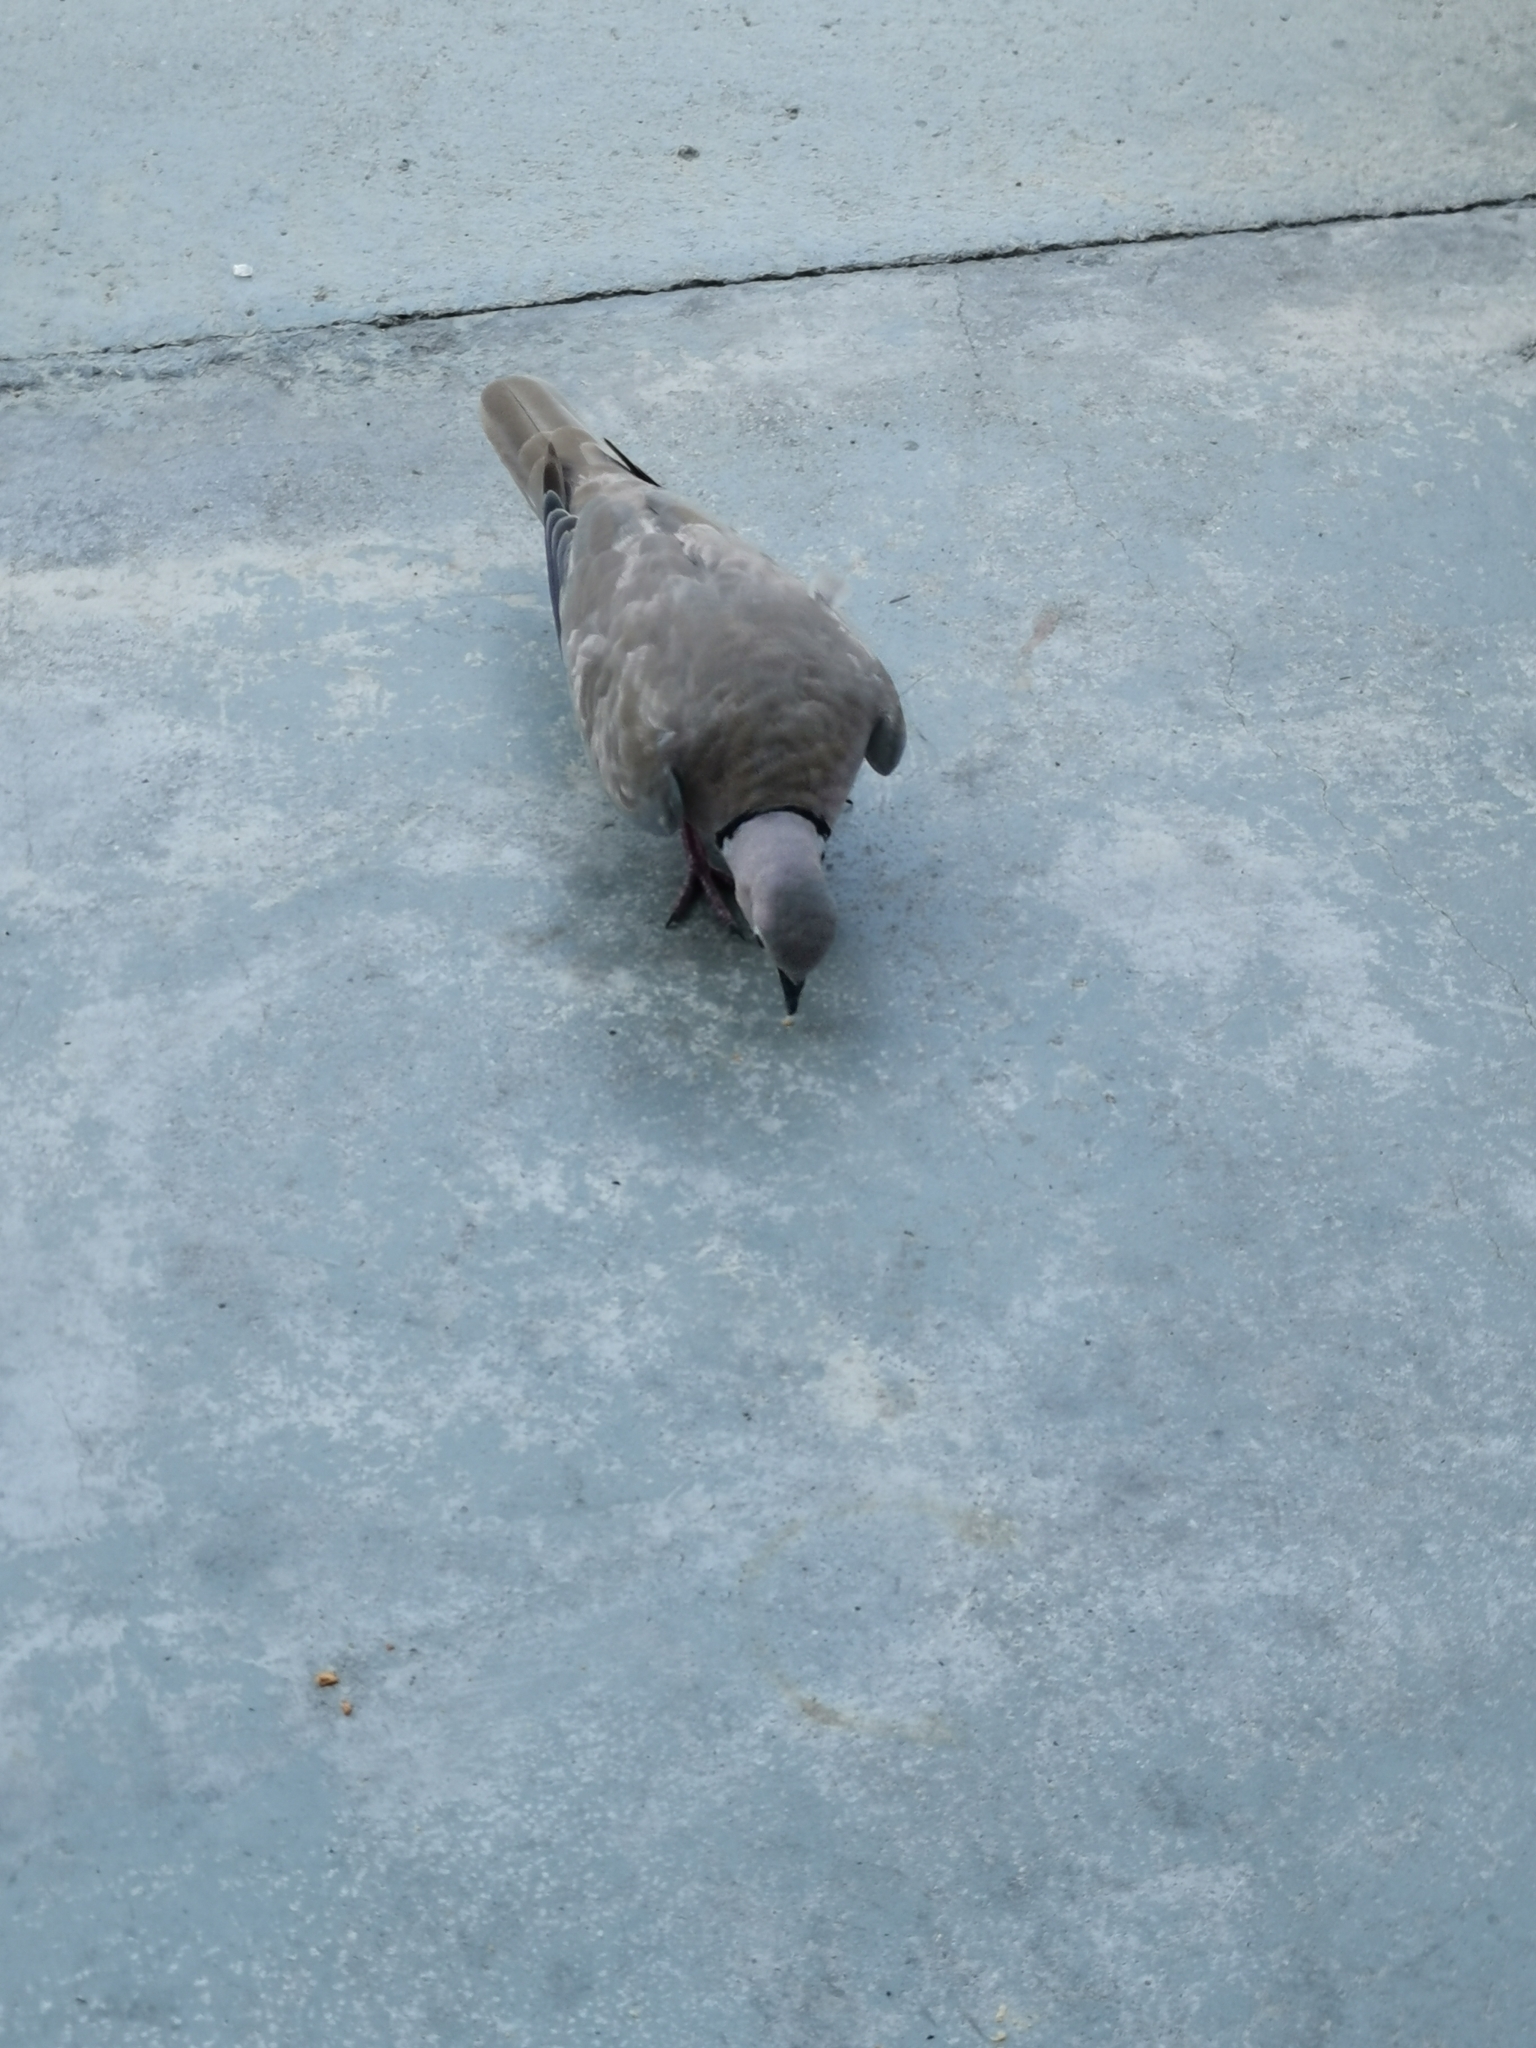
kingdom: Animalia
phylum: Chordata
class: Aves
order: Columbiformes
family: Columbidae
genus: Streptopelia
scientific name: Streptopelia decaocto
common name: Eurasian collared dove
